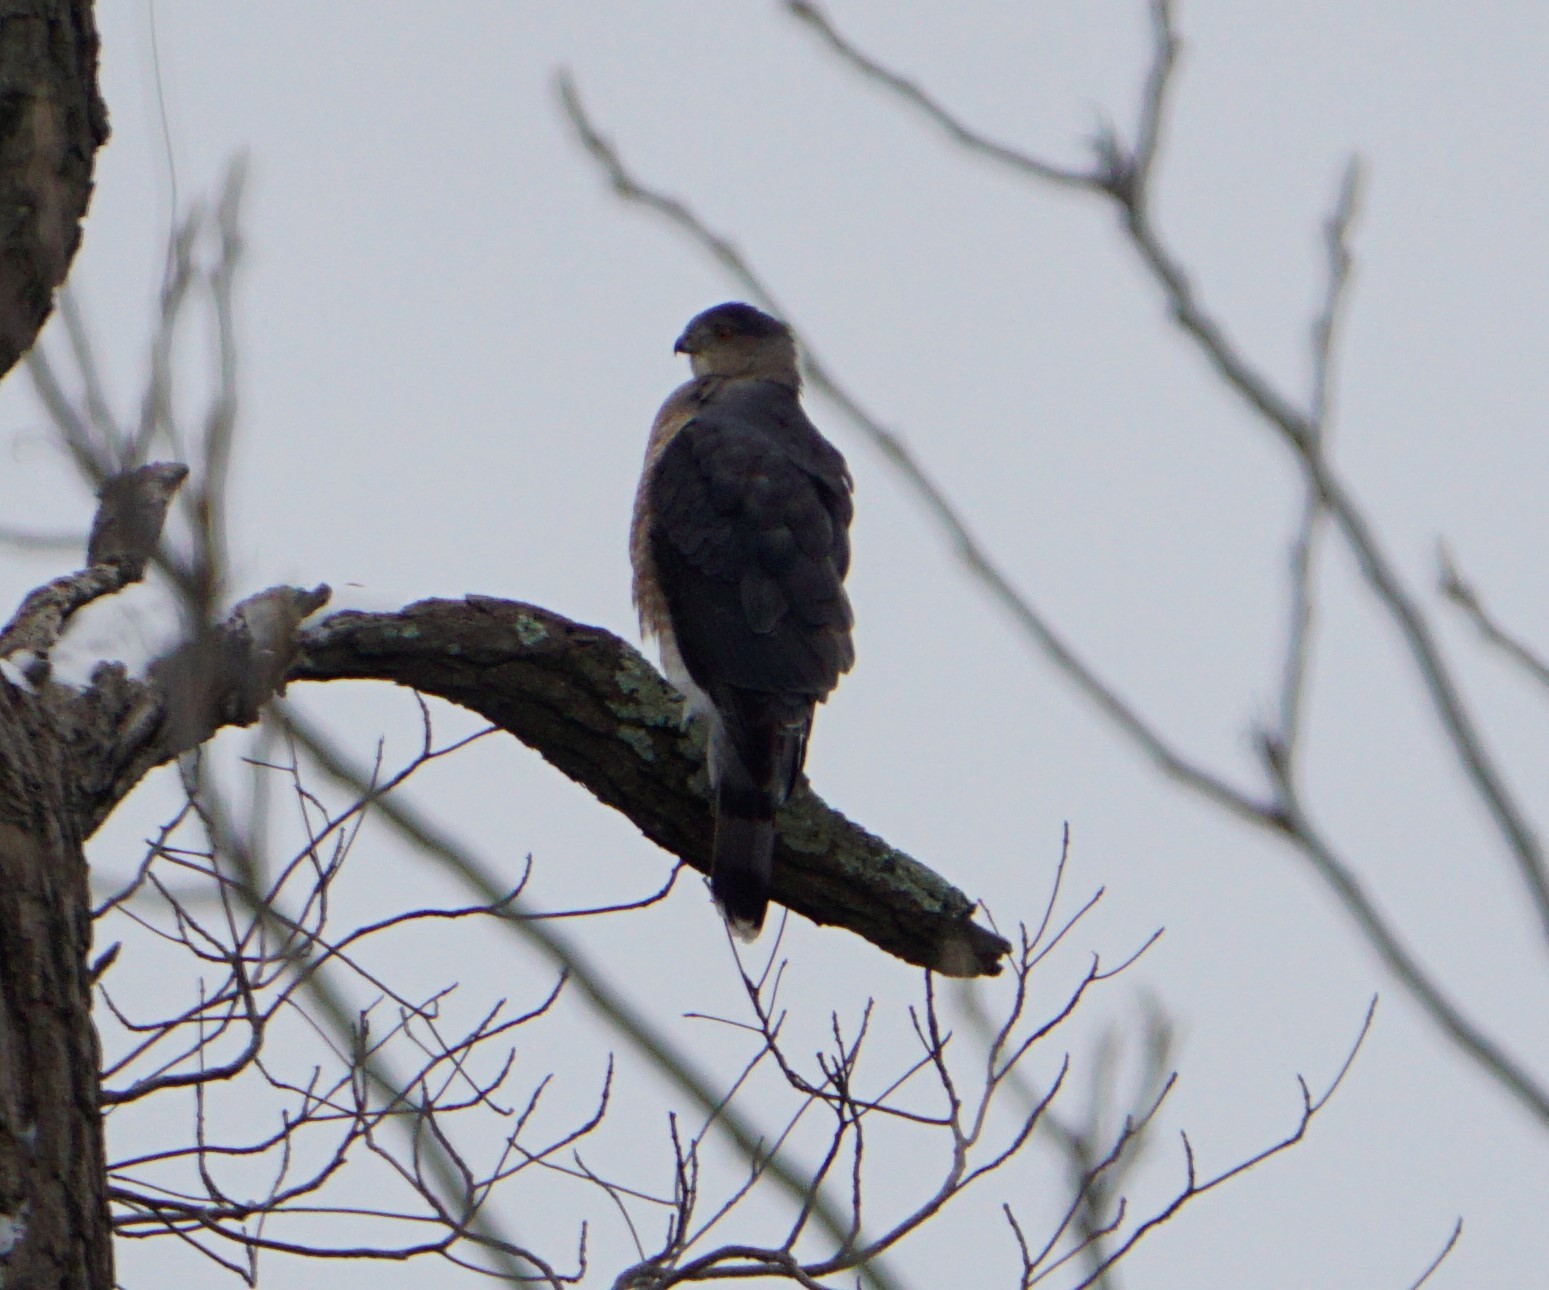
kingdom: Animalia
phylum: Chordata
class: Aves
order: Accipitriformes
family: Accipitridae
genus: Accipiter
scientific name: Accipiter cooperii
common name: Cooper's hawk
